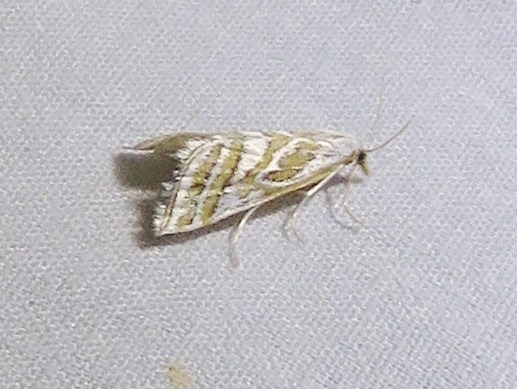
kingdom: Animalia
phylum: Arthropoda
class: Insecta
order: Lepidoptera
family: Crambidae
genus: Leptosteges
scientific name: Leptosteges
